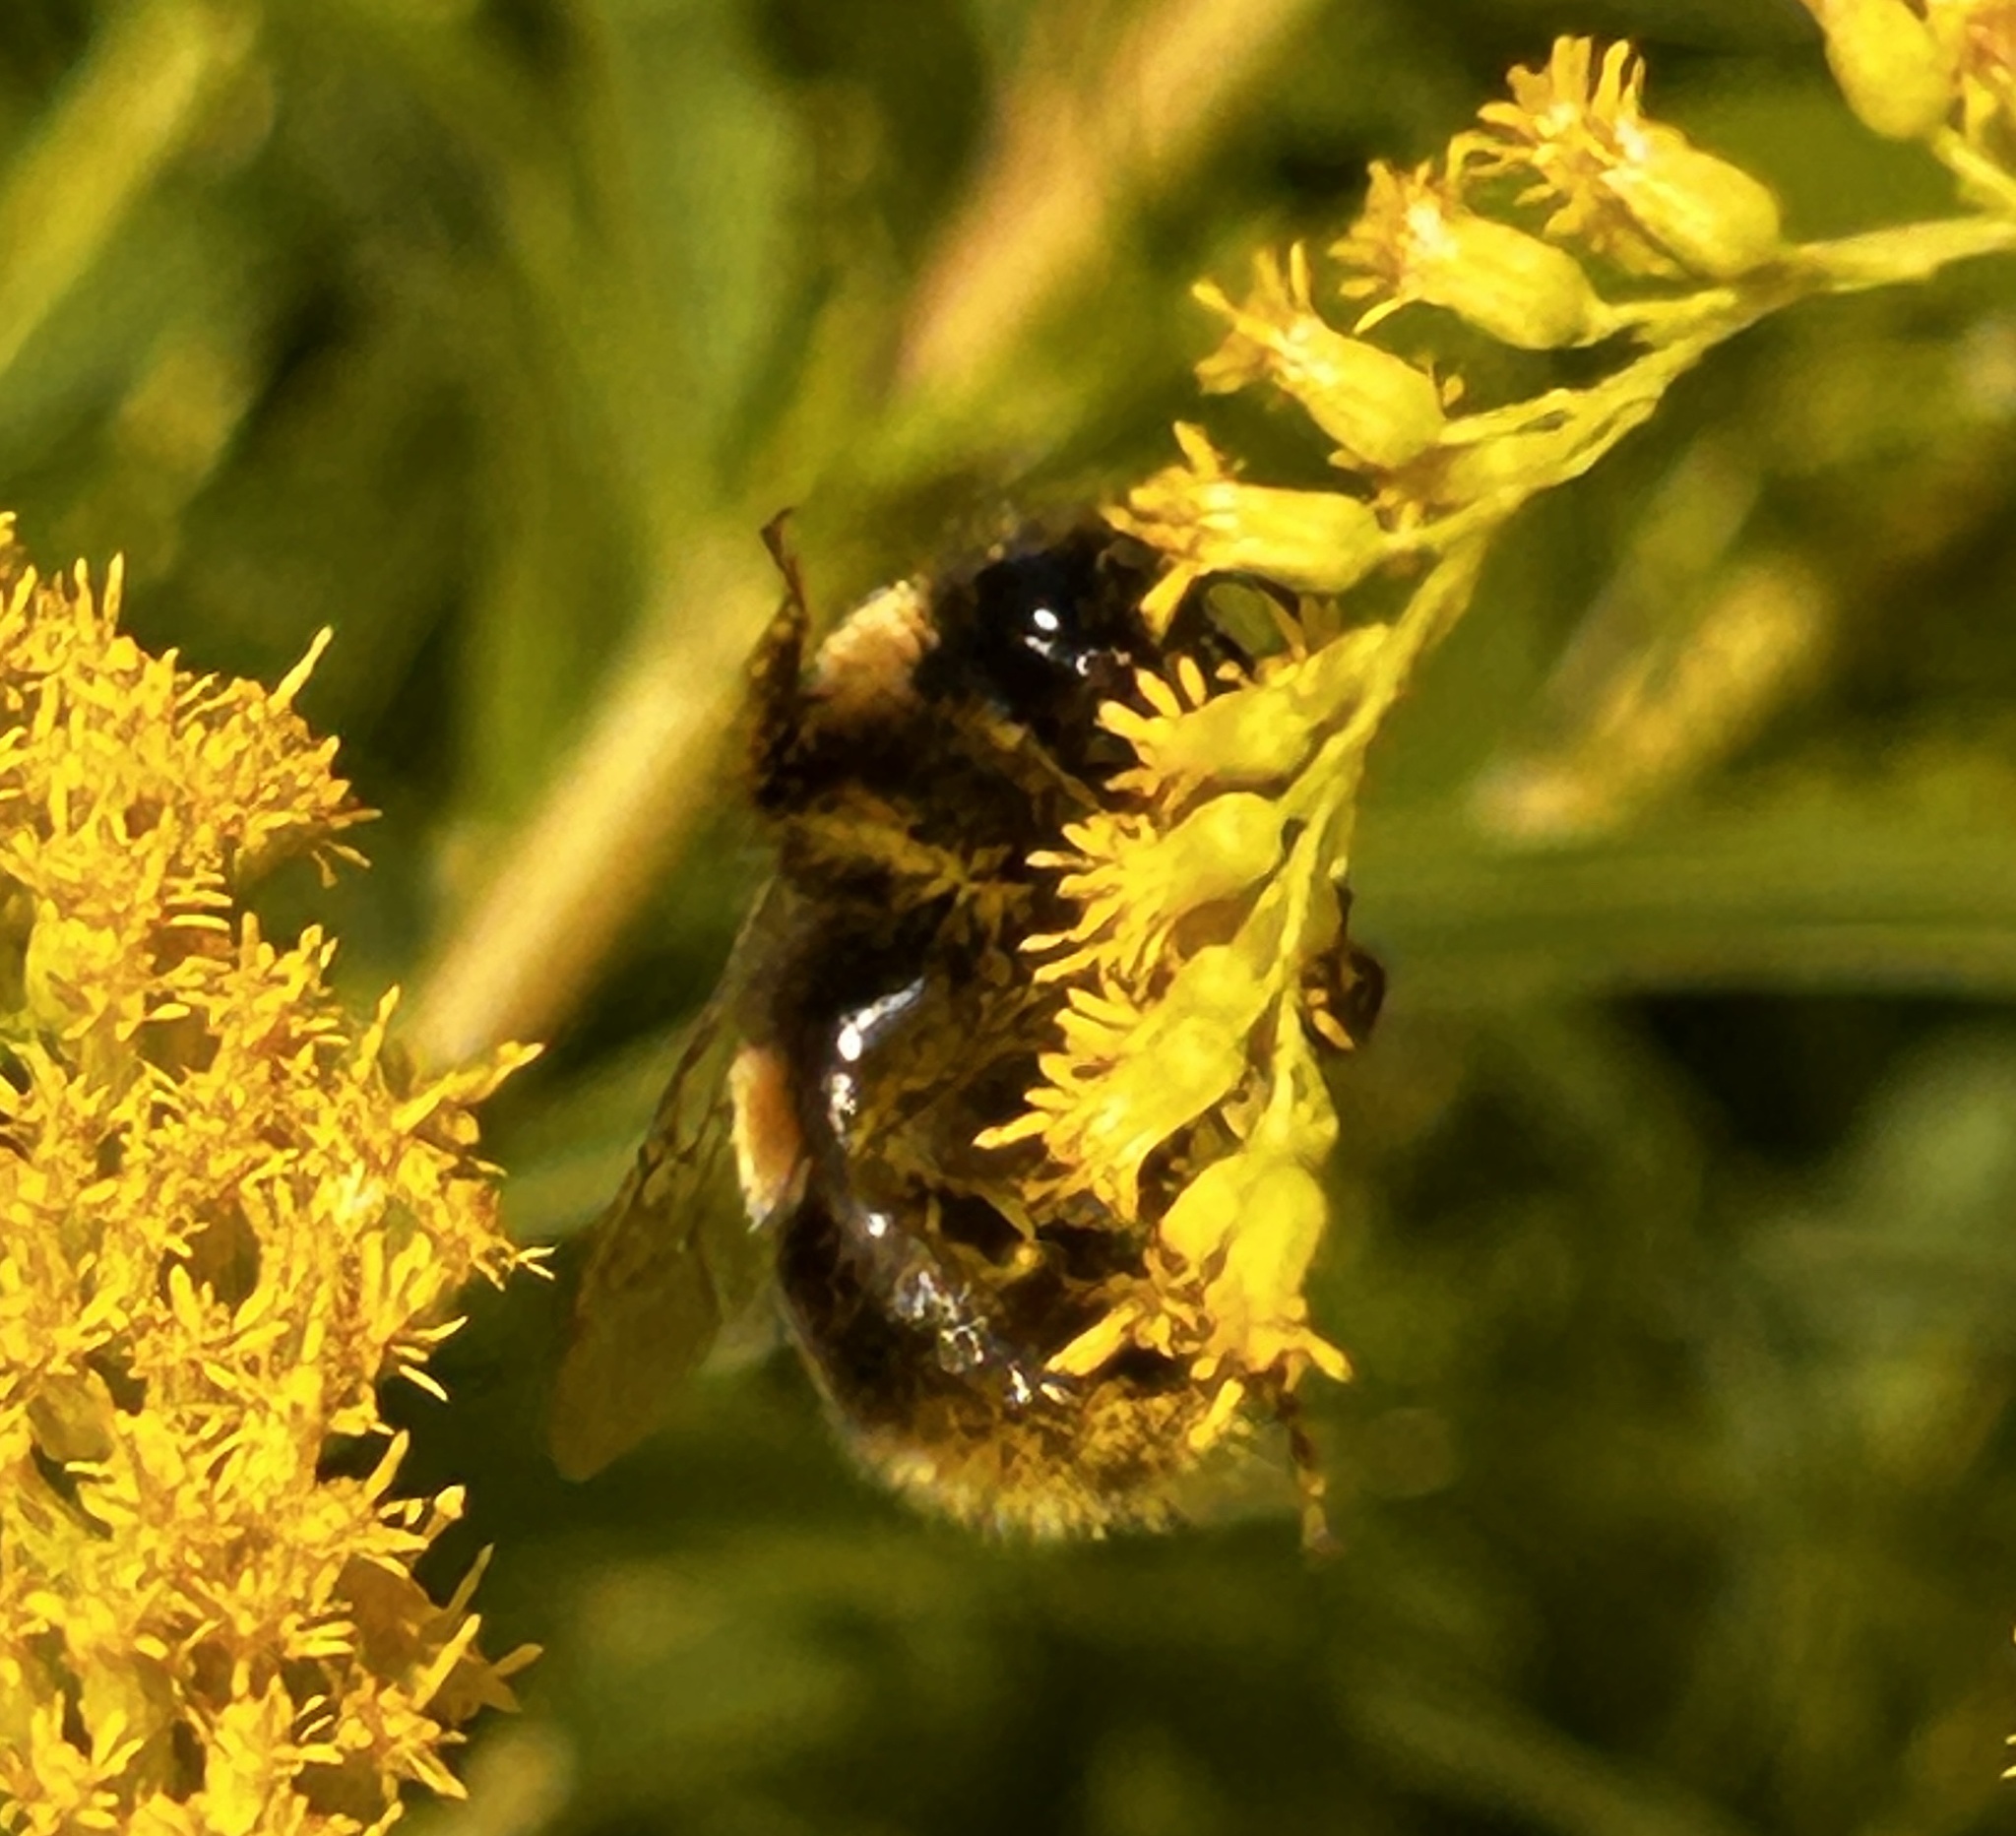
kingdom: Animalia
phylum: Arthropoda
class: Insecta
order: Hymenoptera
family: Apidae
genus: Bombus
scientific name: Bombus terrestris
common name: Buff-tailed bumblebee
